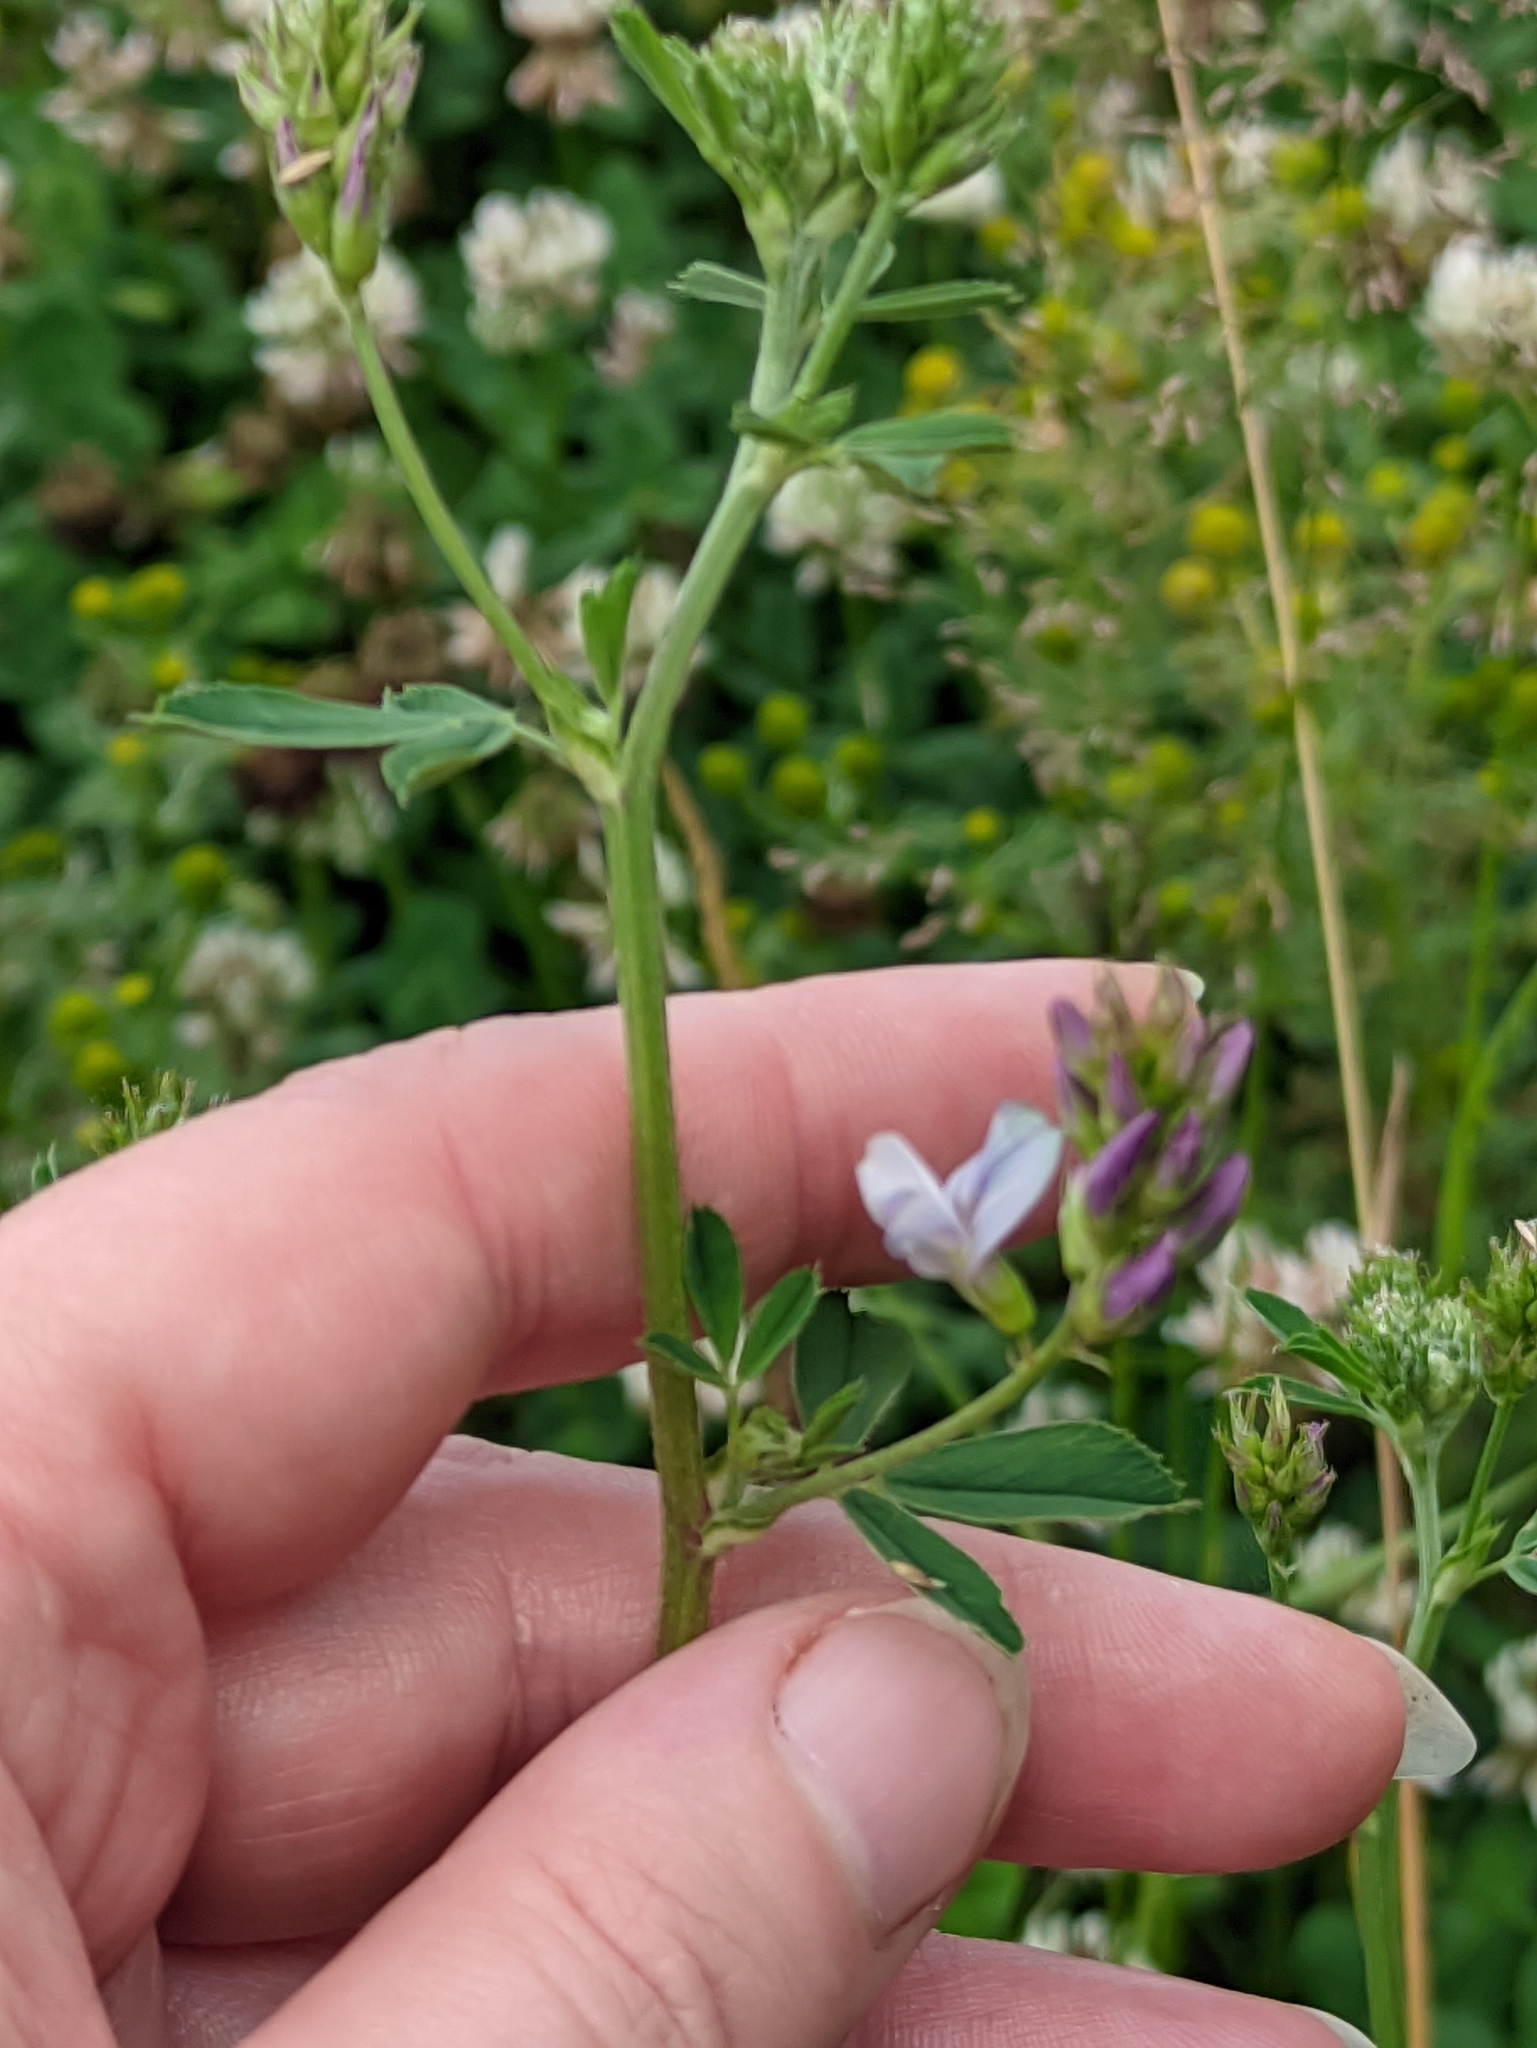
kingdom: Plantae
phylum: Tracheophyta
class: Magnoliopsida
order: Fabales
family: Fabaceae
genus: Medicago
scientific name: Medicago varia
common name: Sand lucerne
